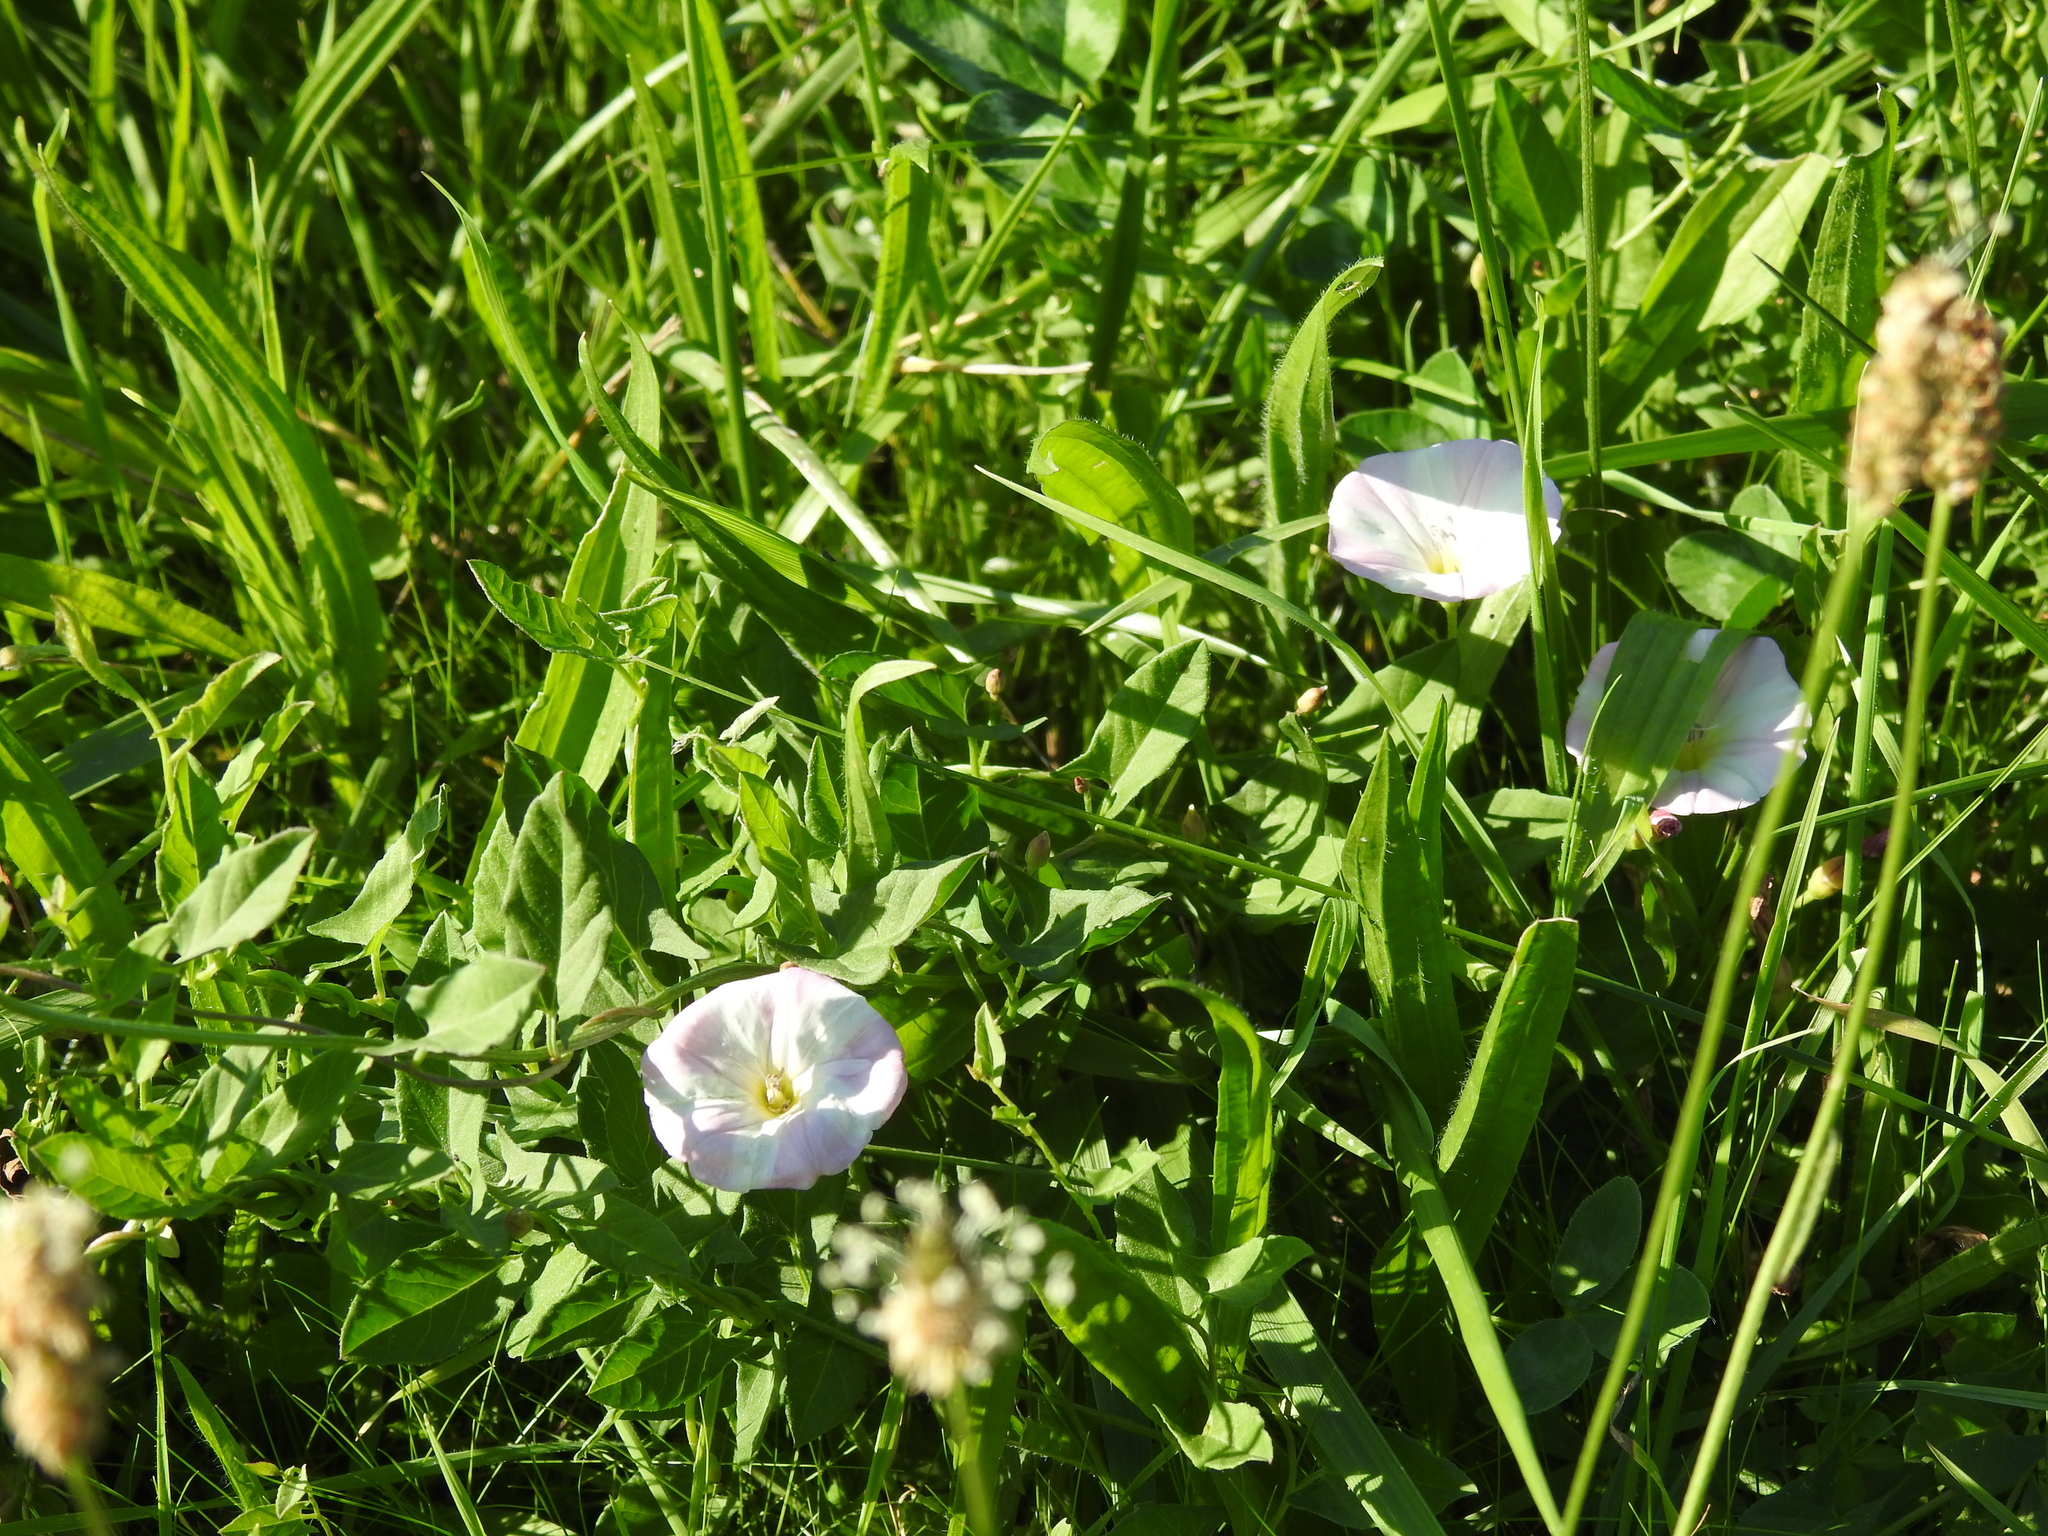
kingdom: Plantae
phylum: Tracheophyta
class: Magnoliopsida
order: Solanales
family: Convolvulaceae
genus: Convolvulus
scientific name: Convolvulus arvensis
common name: Field bindweed
